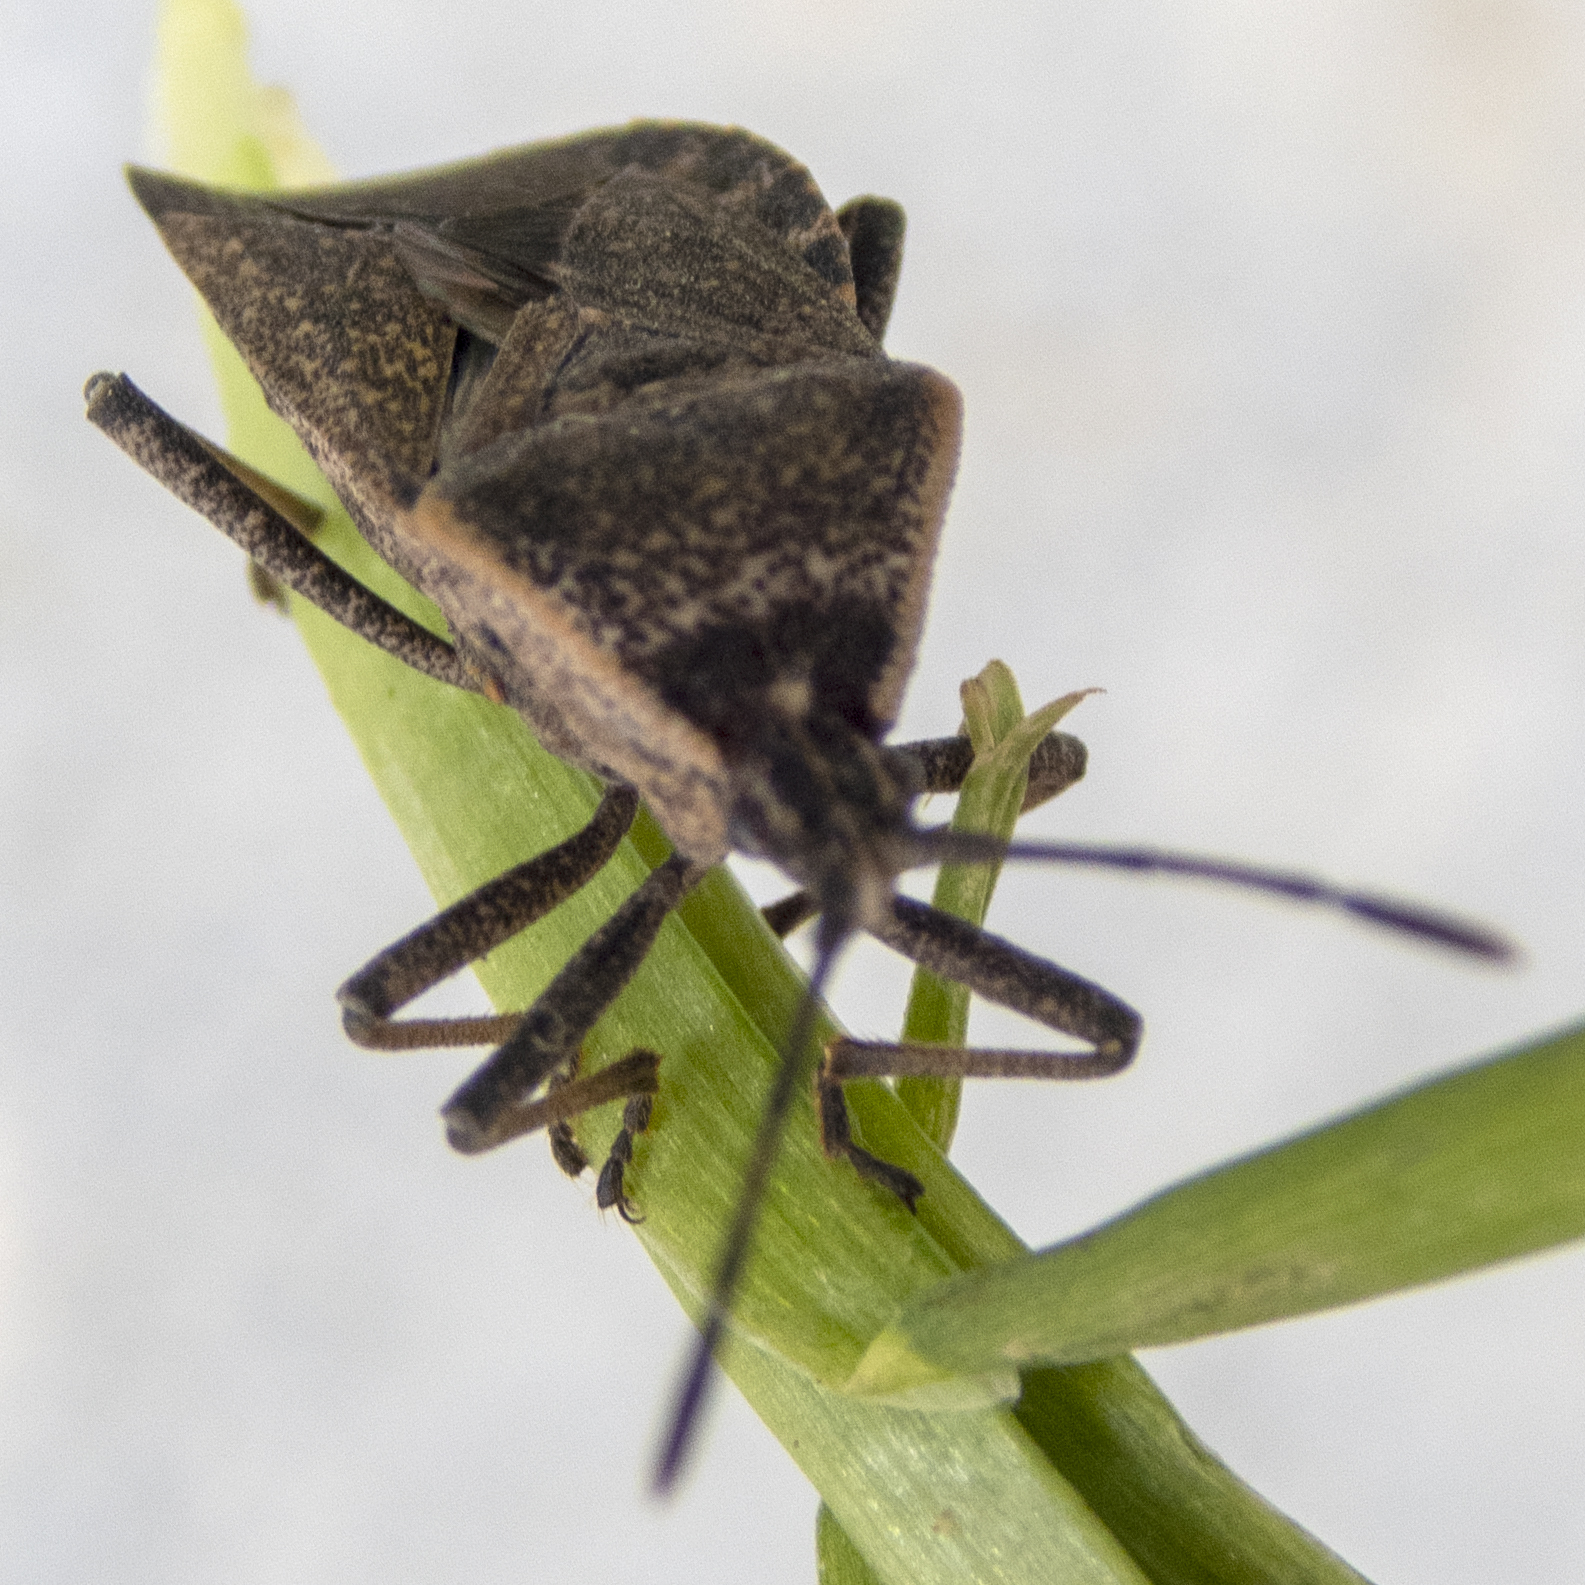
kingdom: Animalia
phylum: Arthropoda
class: Insecta
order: Hemiptera
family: Coreidae
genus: Anasa
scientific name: Anasa tristis
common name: Squash bug
